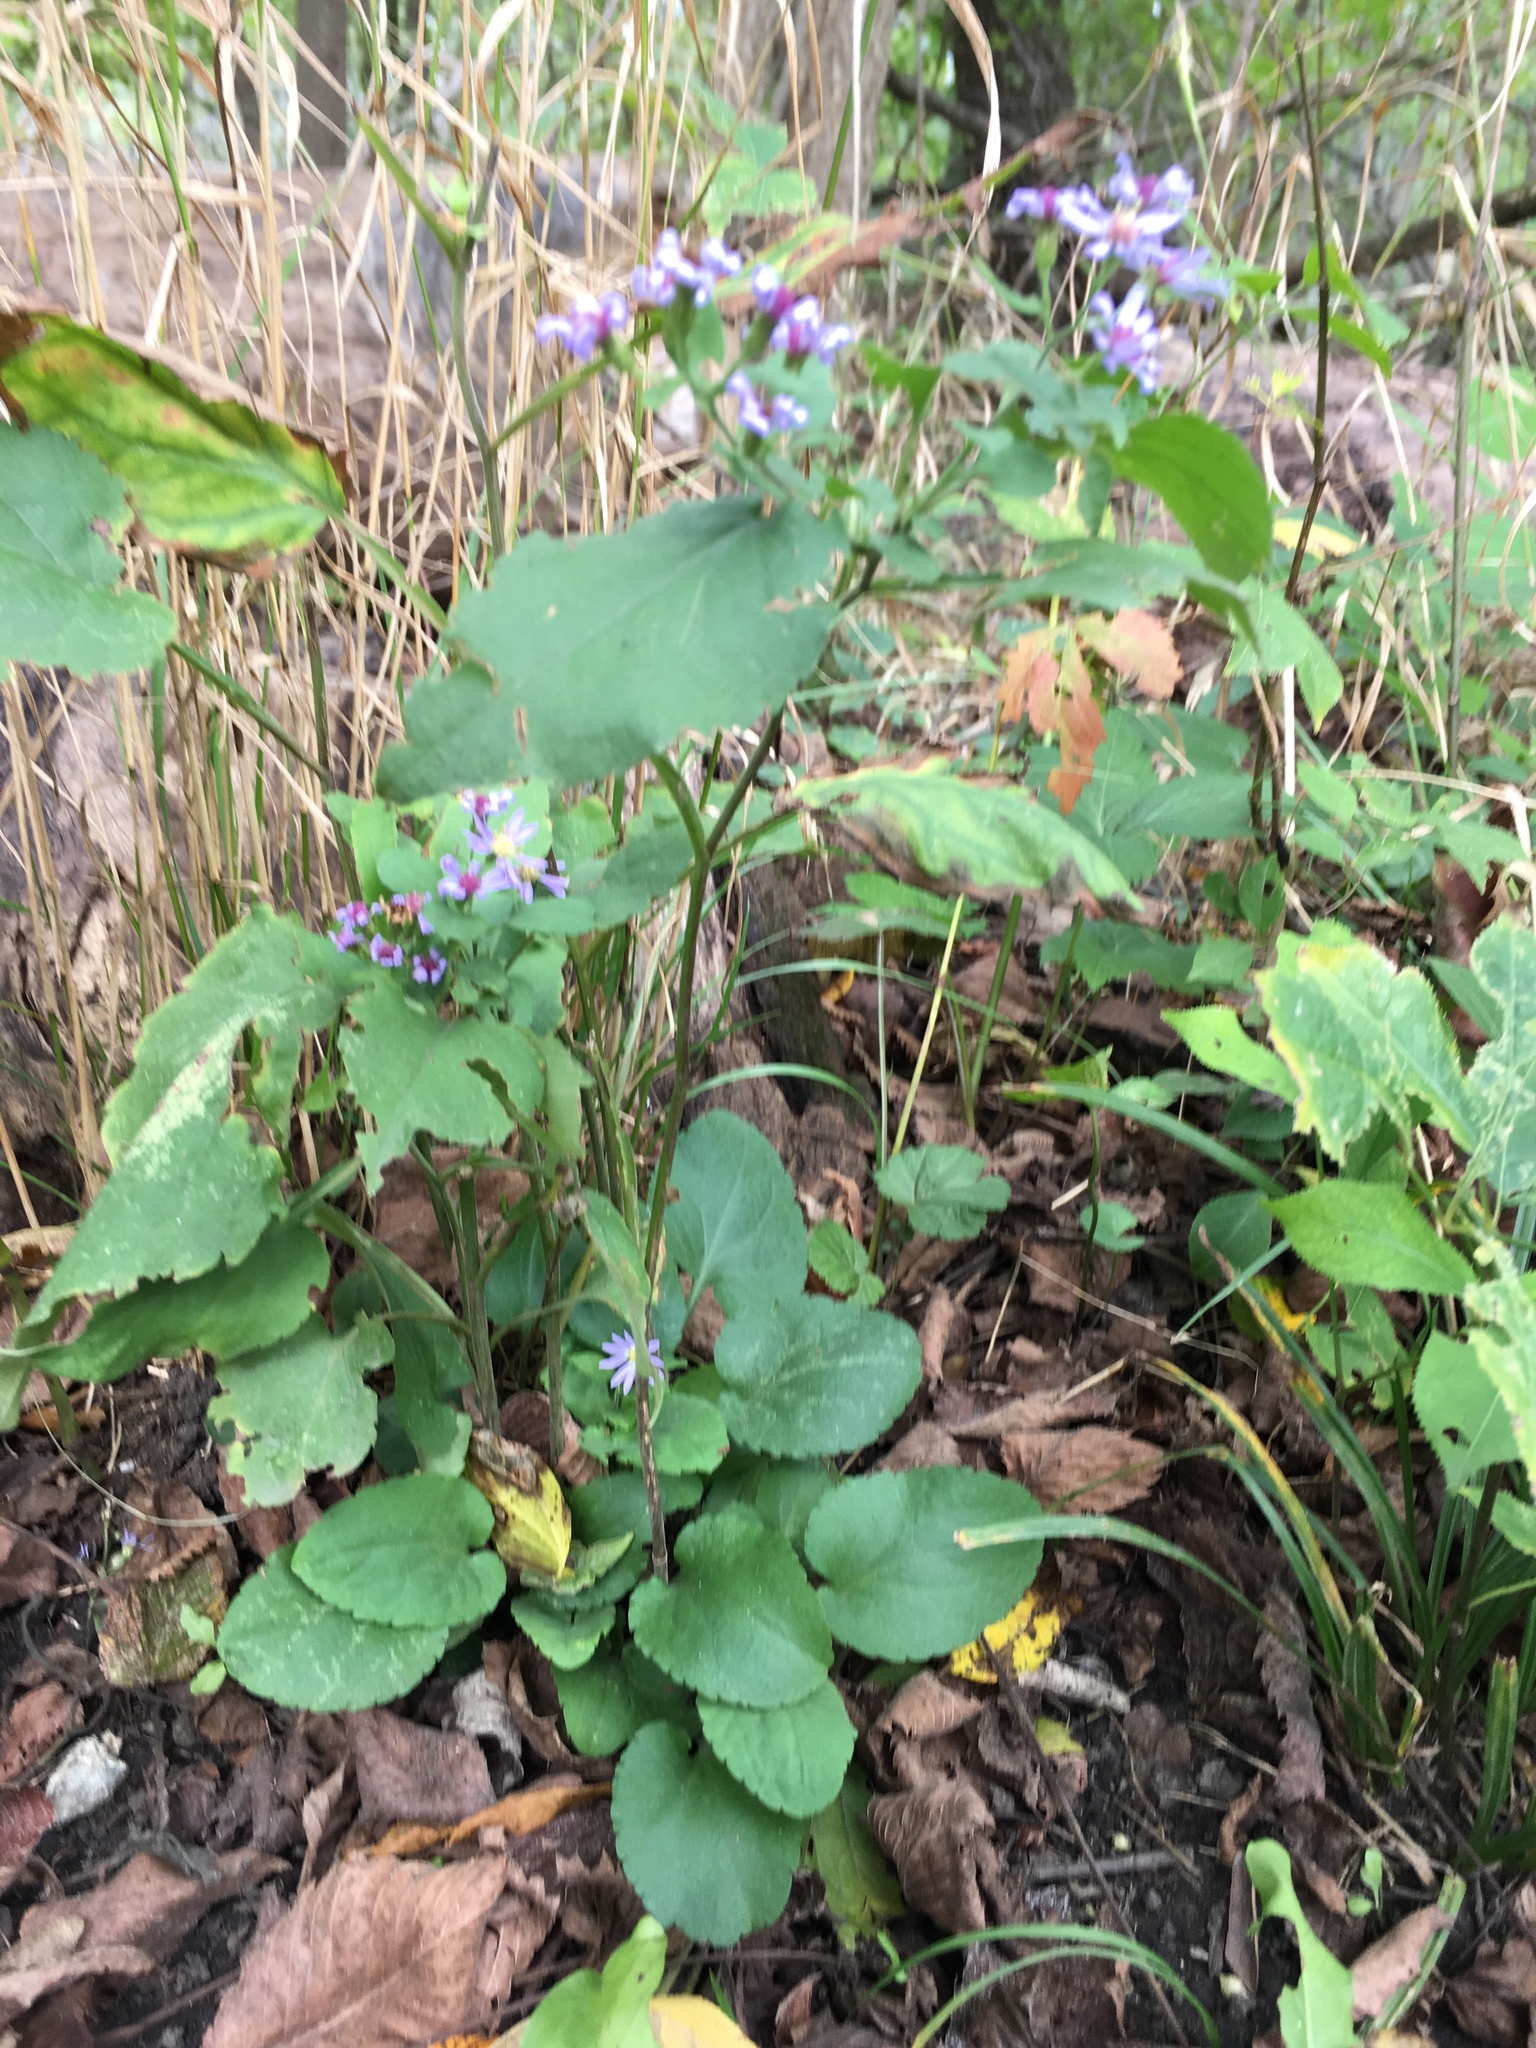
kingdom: Plantae
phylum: Tracheophyta
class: Magnoliopsida
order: Asterales
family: Asteraceae
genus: Symphyotrichum
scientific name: Symphyotrichum drummondii
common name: Drummond's aster
